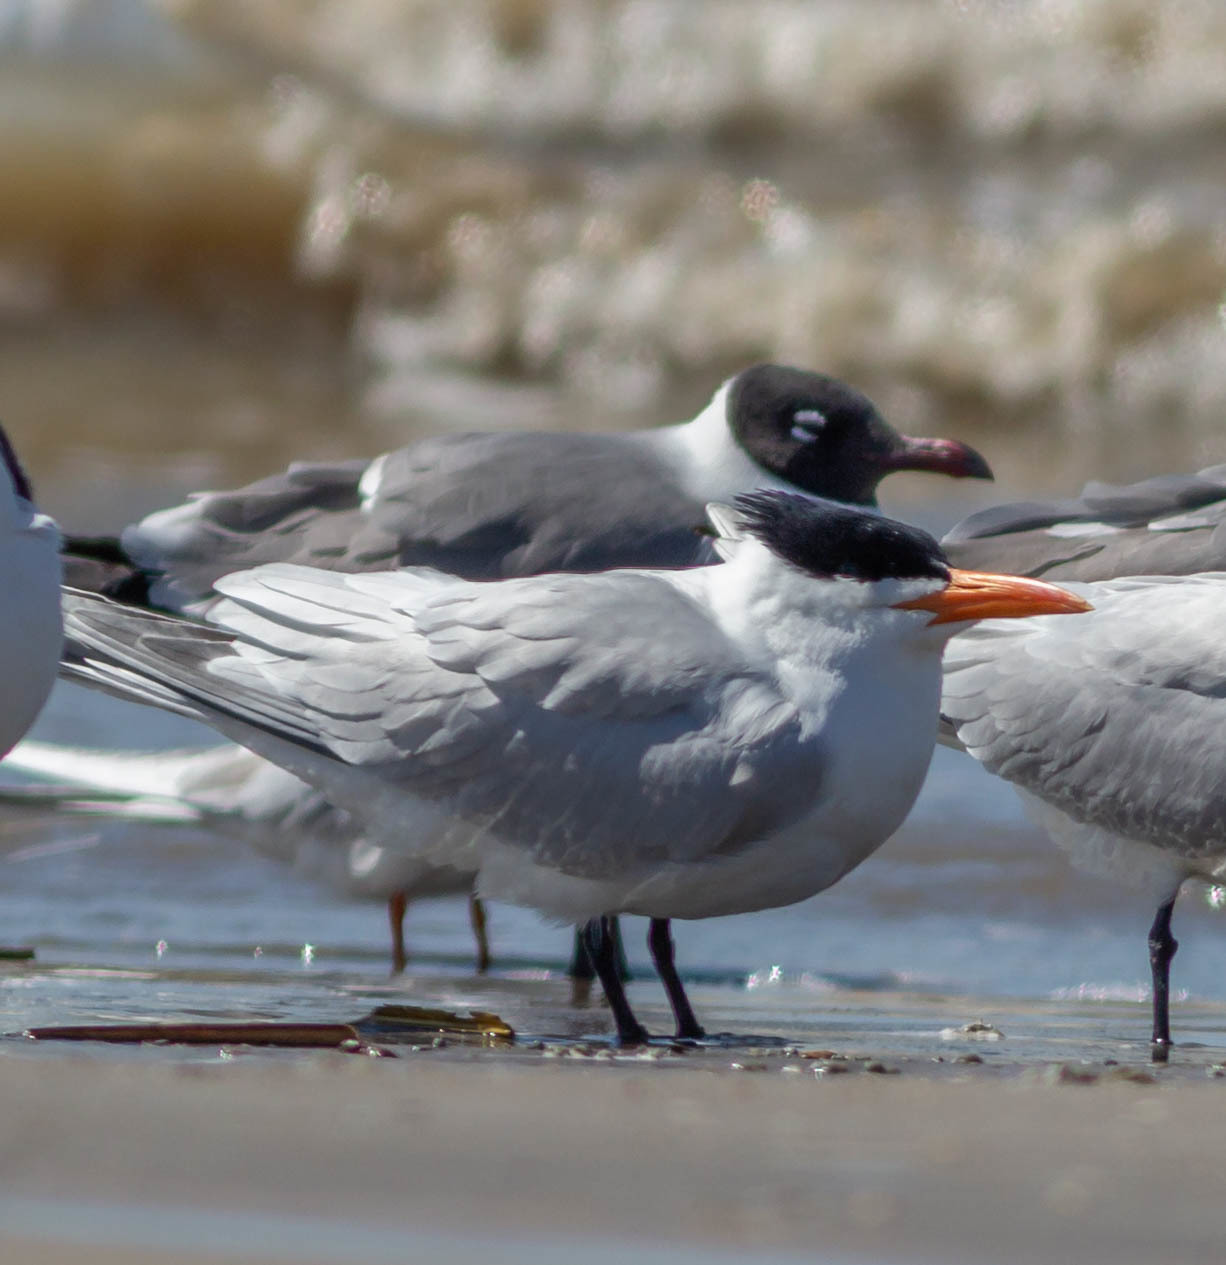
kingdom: Animalia
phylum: Chordata
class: Aves
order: Charadriiformes
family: Laridae
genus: Thalasseus
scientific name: Thalasseus maximus
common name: Royal tern
